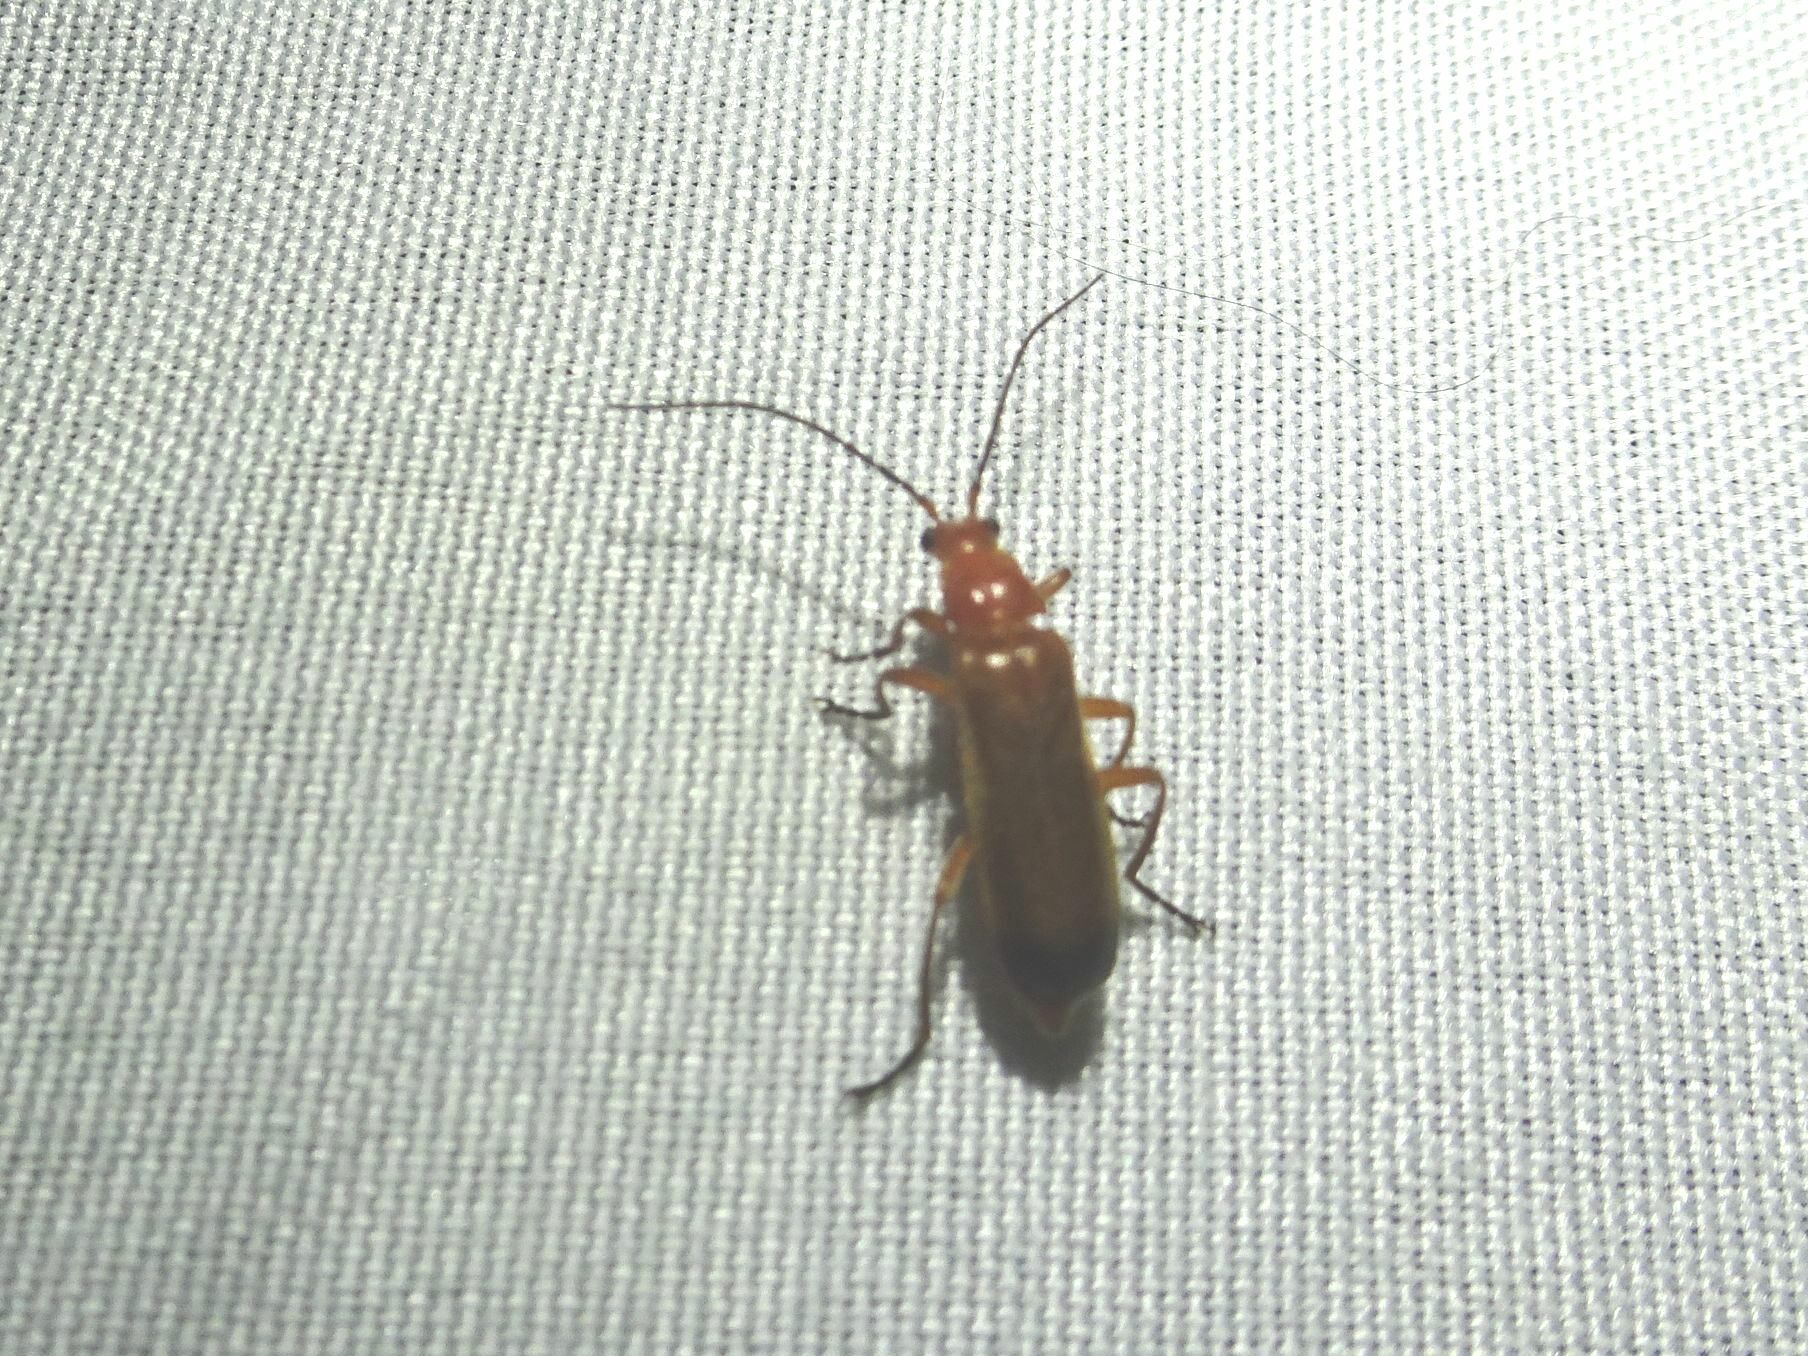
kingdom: Animalia
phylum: Arthropoda
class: Insecta
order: Coleoptera
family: Cantharidae
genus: Rhagonycha
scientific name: Rhagonycha fulva
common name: Common red soldier beetle
